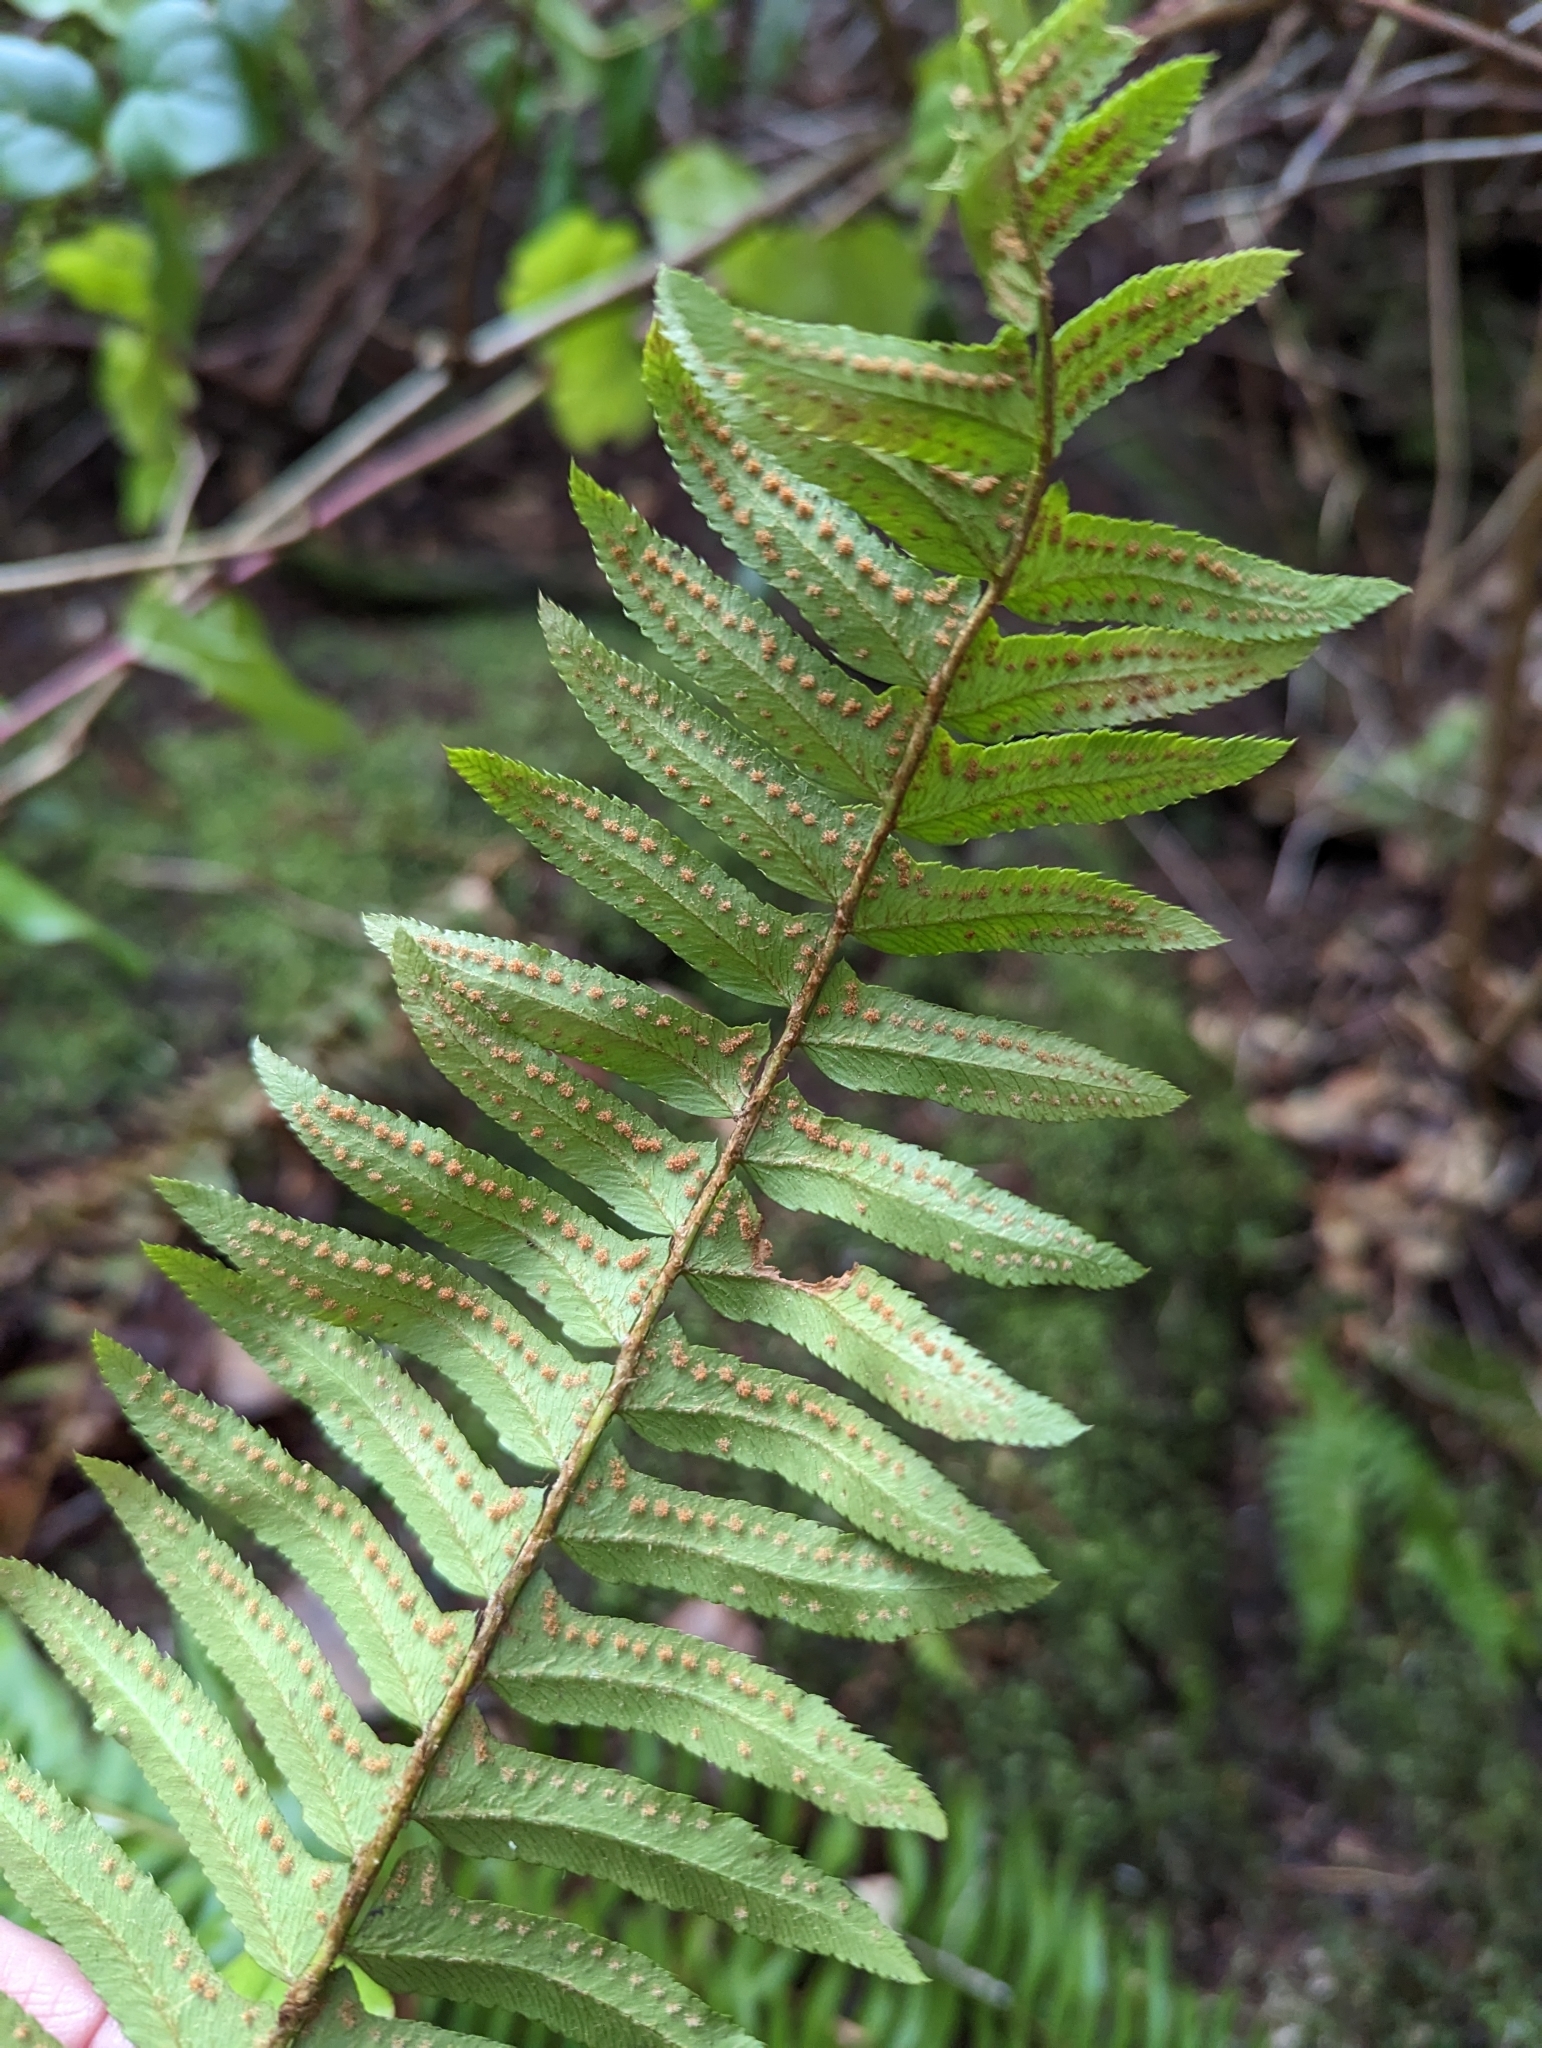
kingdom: Plantae
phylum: Tracheophyta
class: Polypodiopsida
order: Polypodiales
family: Dryopteridaceae
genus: Polystichum
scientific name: Polystichum munitum
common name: Western sword-fern
